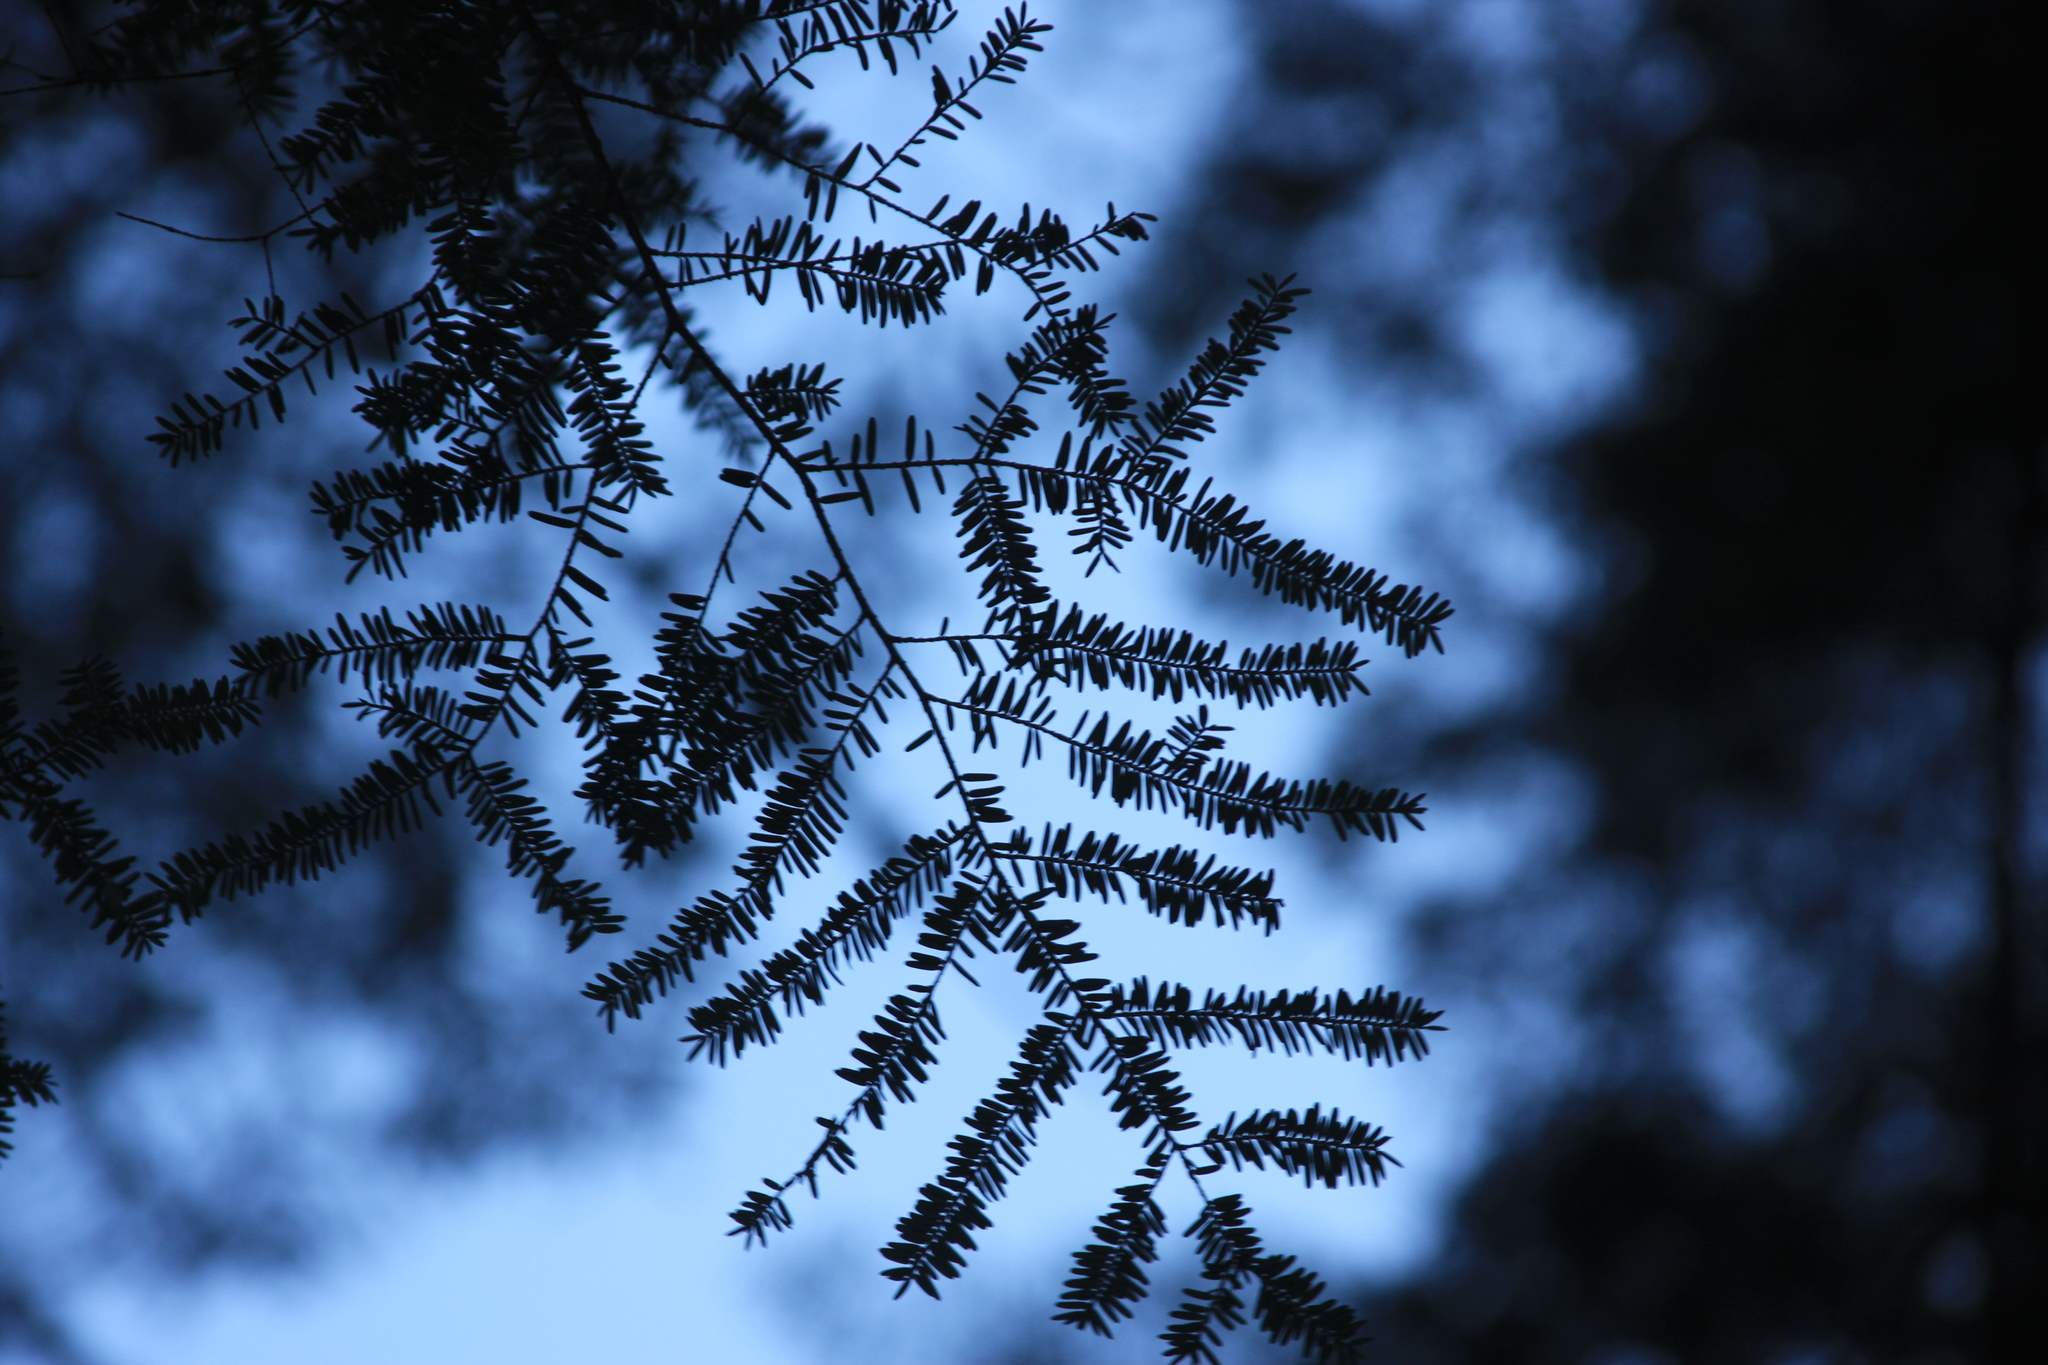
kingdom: Plantae
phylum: Tracheophyta
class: Pinopsida
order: Pinales
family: Pinaceae
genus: Tsuga
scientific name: Tsuga canadensis
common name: Eastern hemlock
